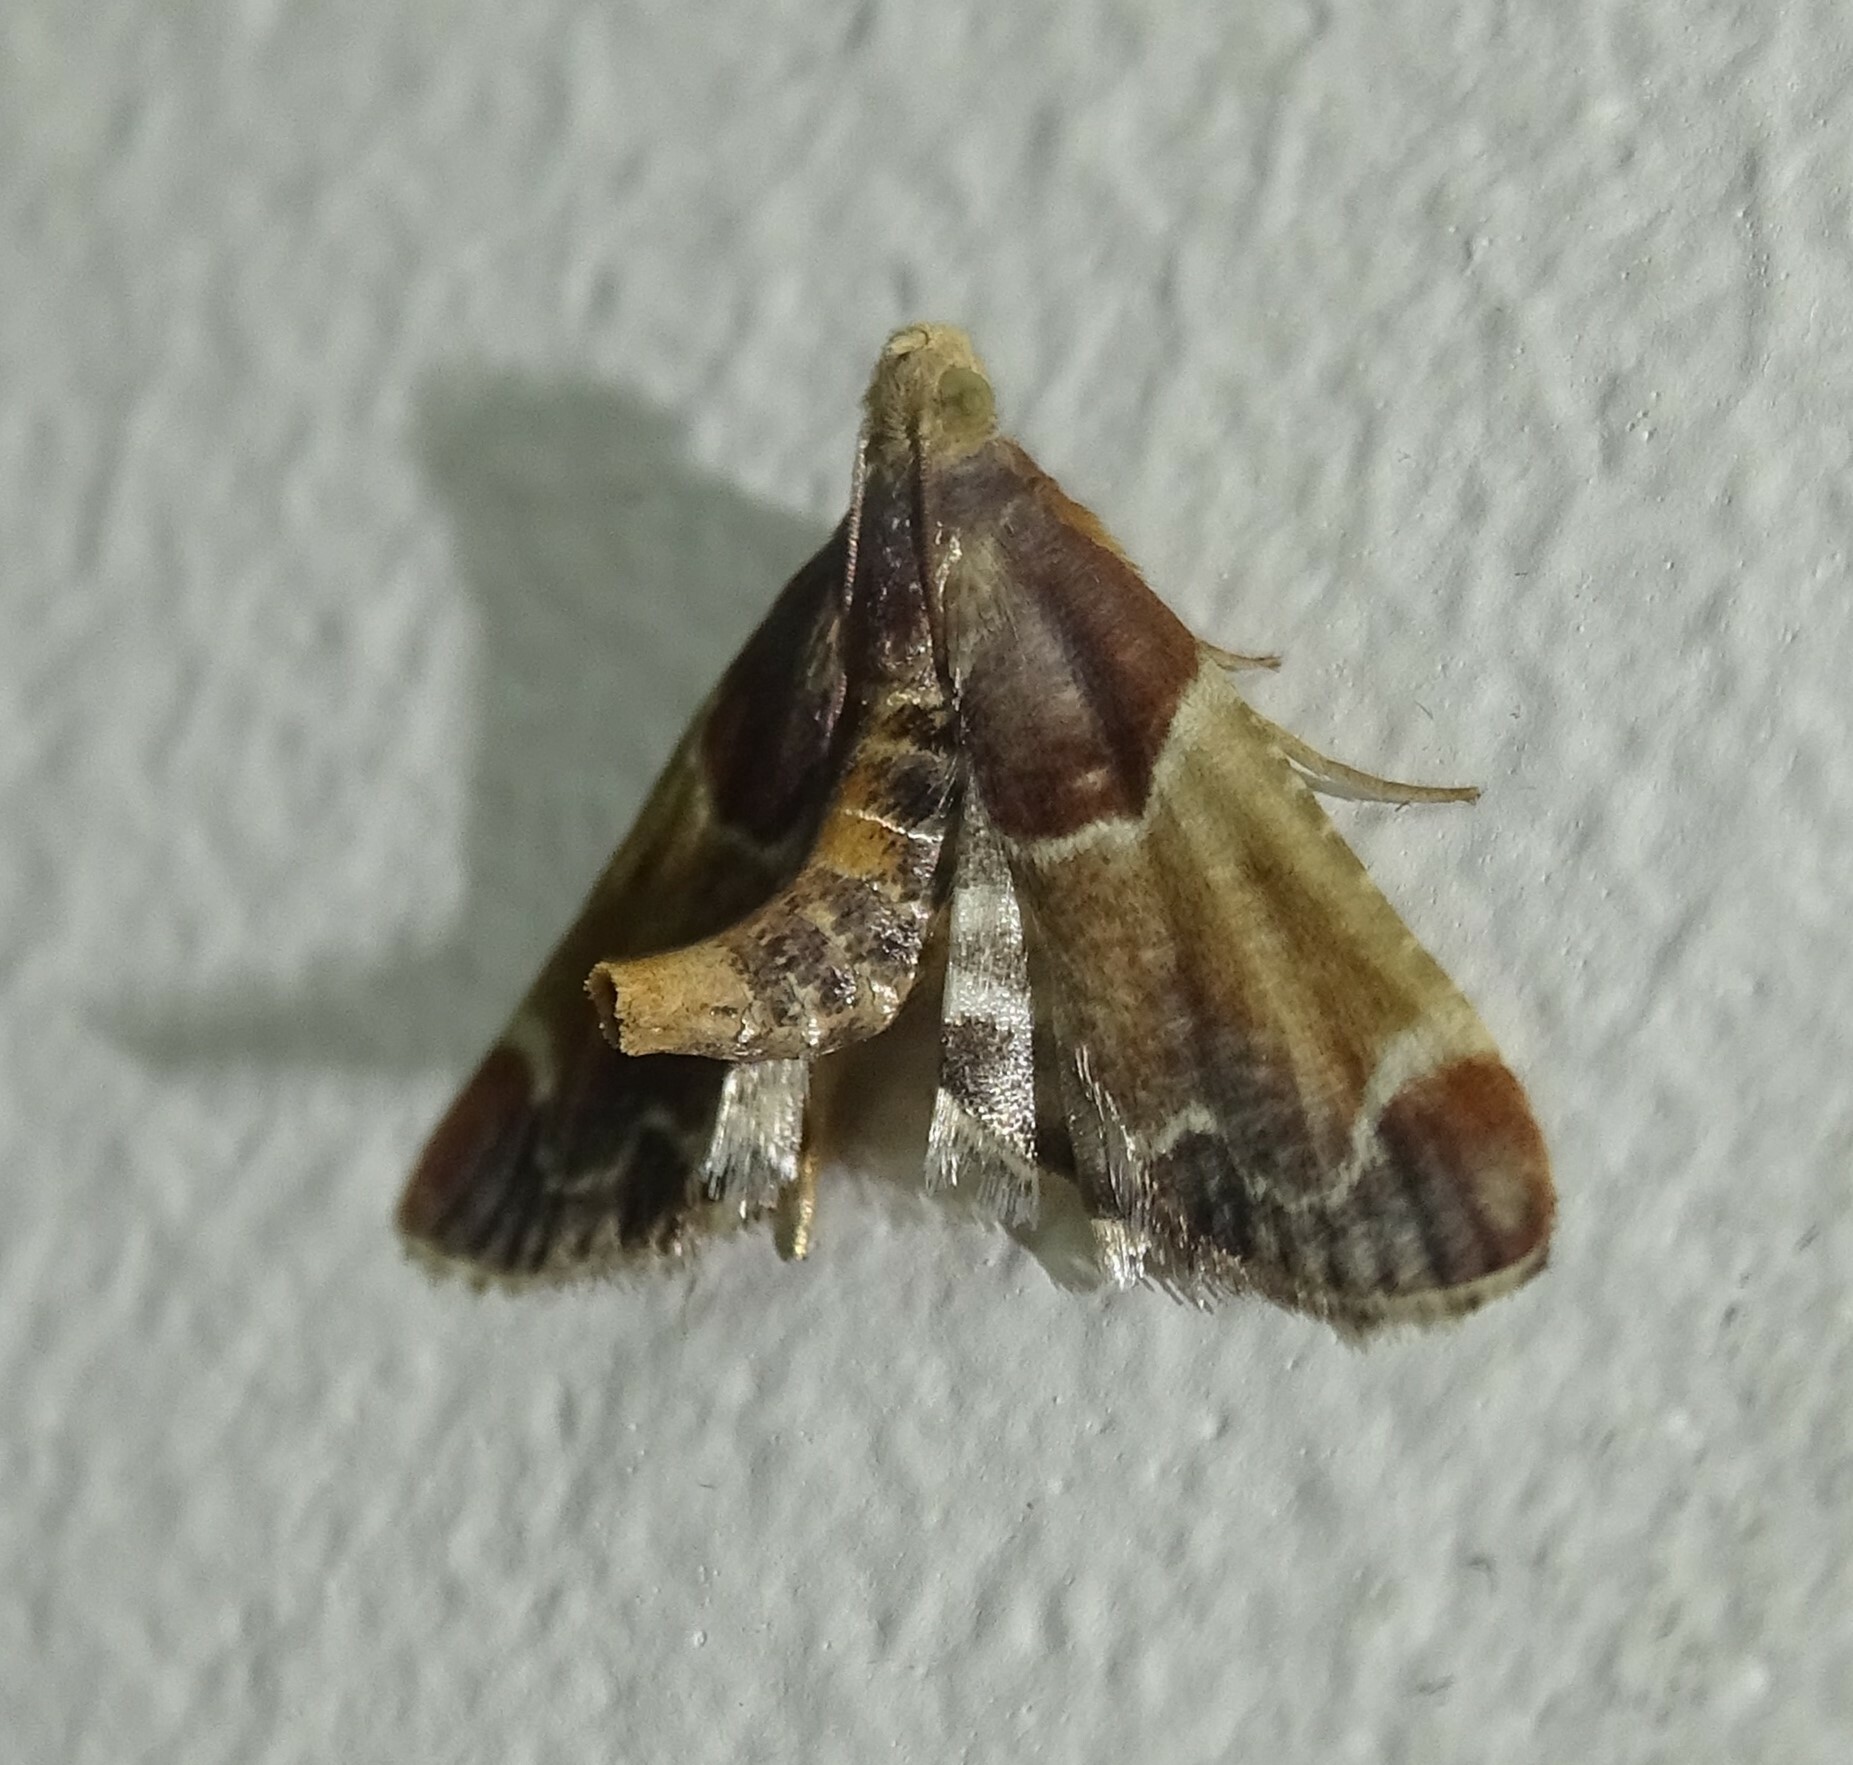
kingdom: Animalia
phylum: Arthropoda
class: Insecta
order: Lepidoptera
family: Pyralidae
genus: Pyralis
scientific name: Pyralis farinalis
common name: Meal moth
